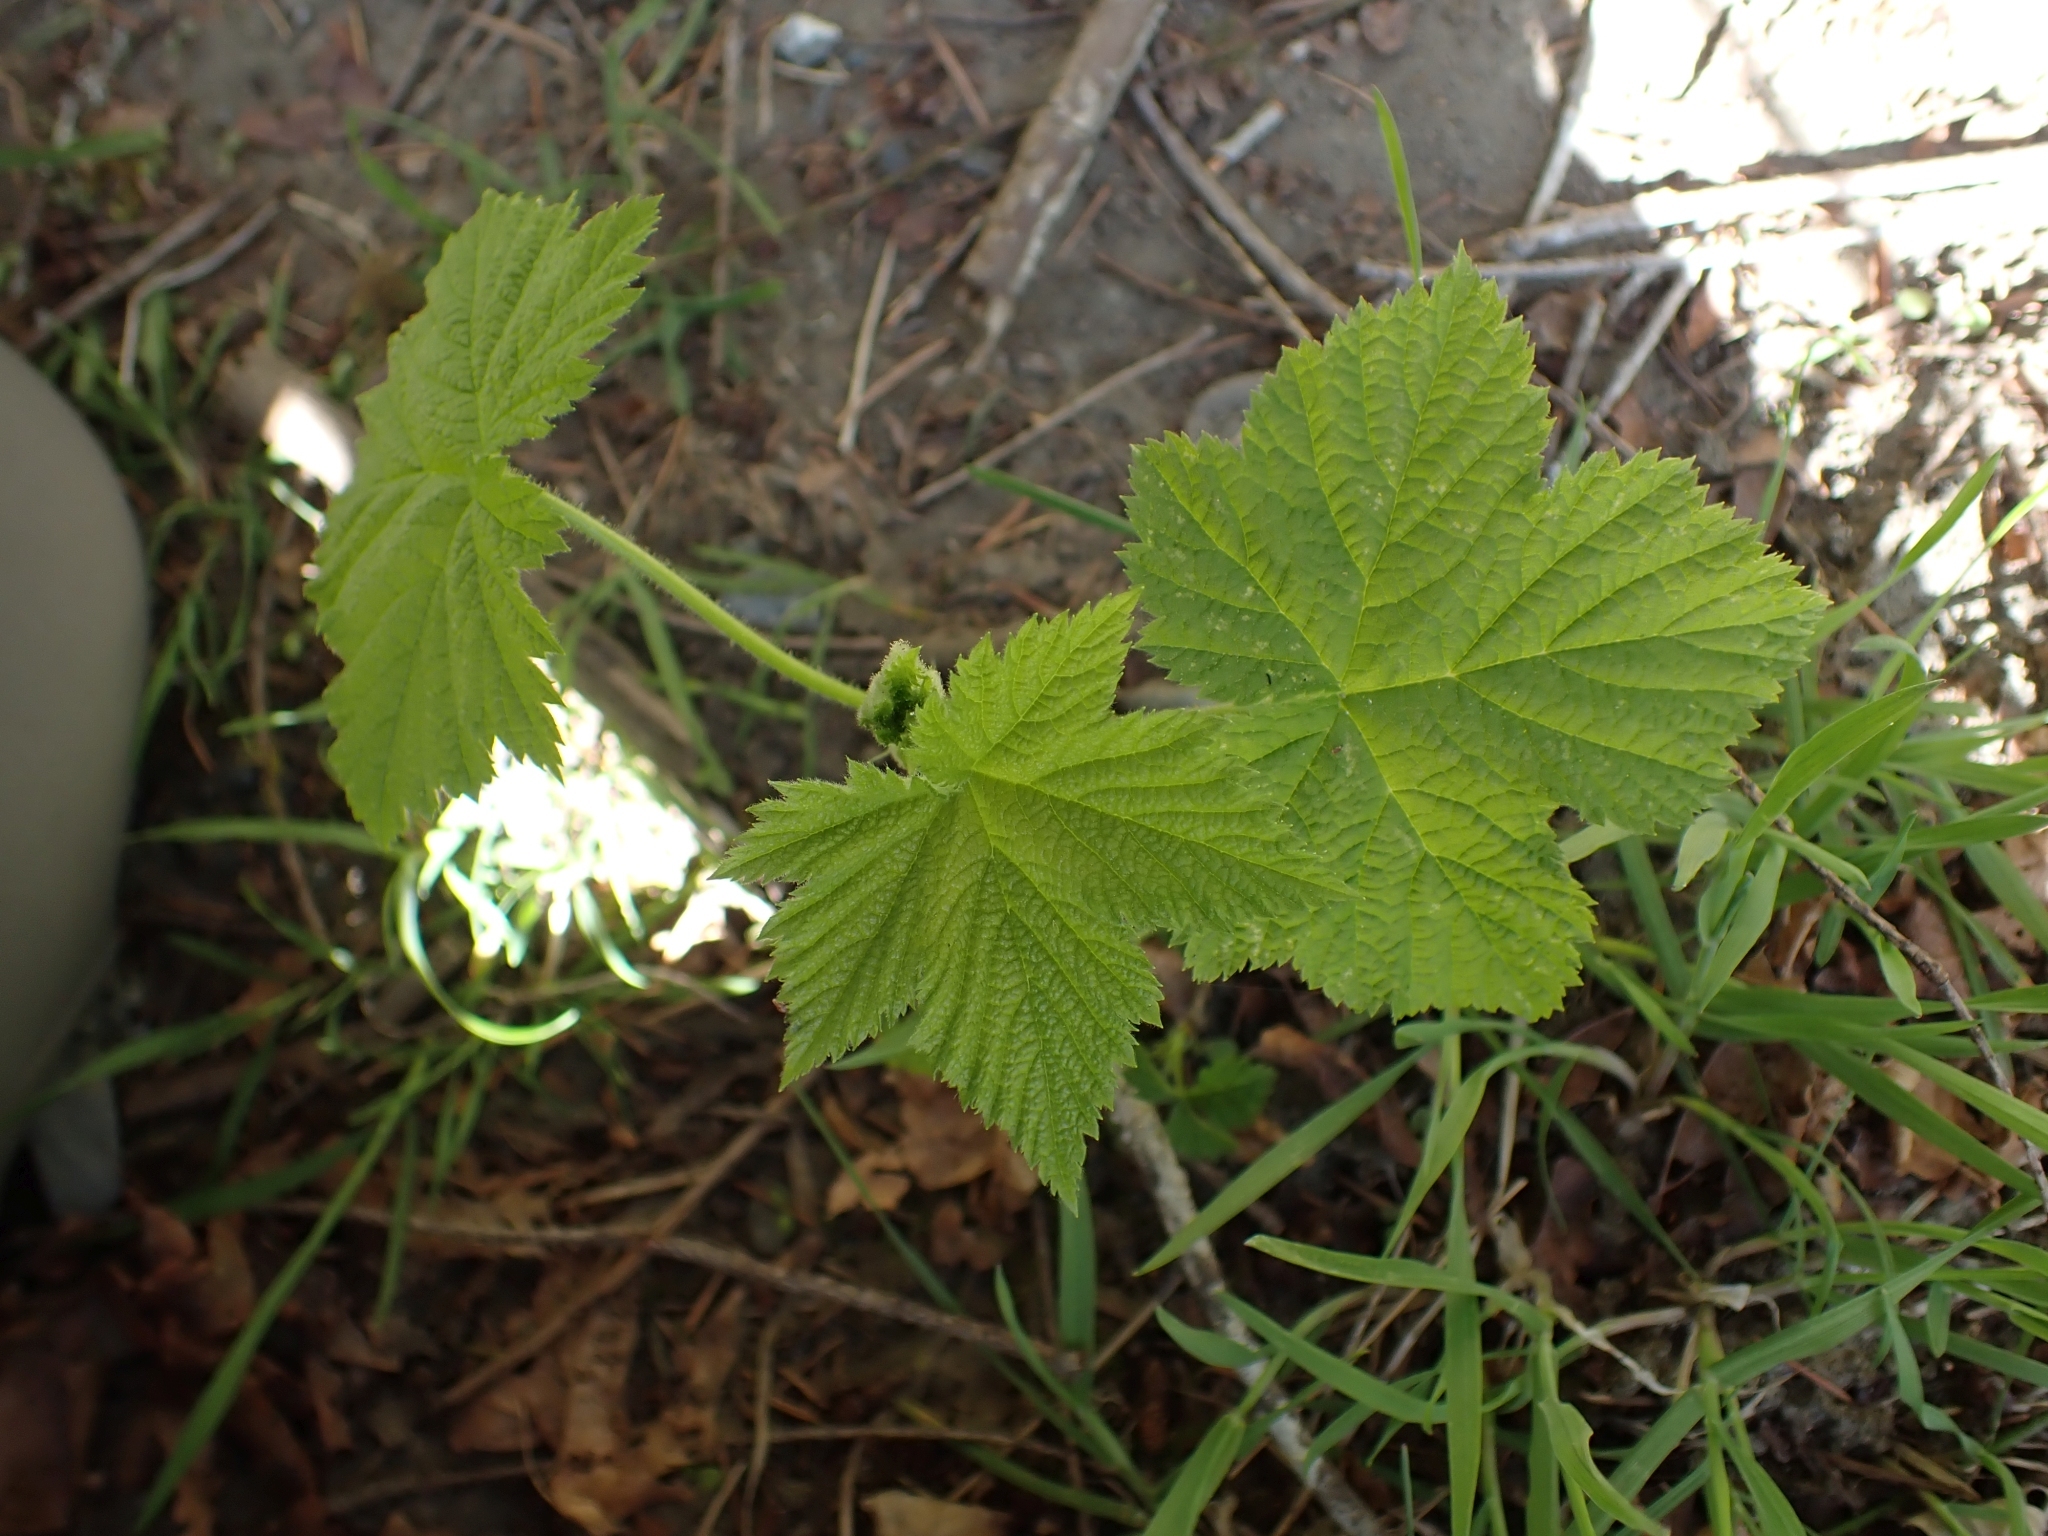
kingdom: Plantae
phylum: Tracheophyta
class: Magnoliopsida
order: Rosales
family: Rosaceae
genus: Rubus
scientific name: Rubus parviflorus
